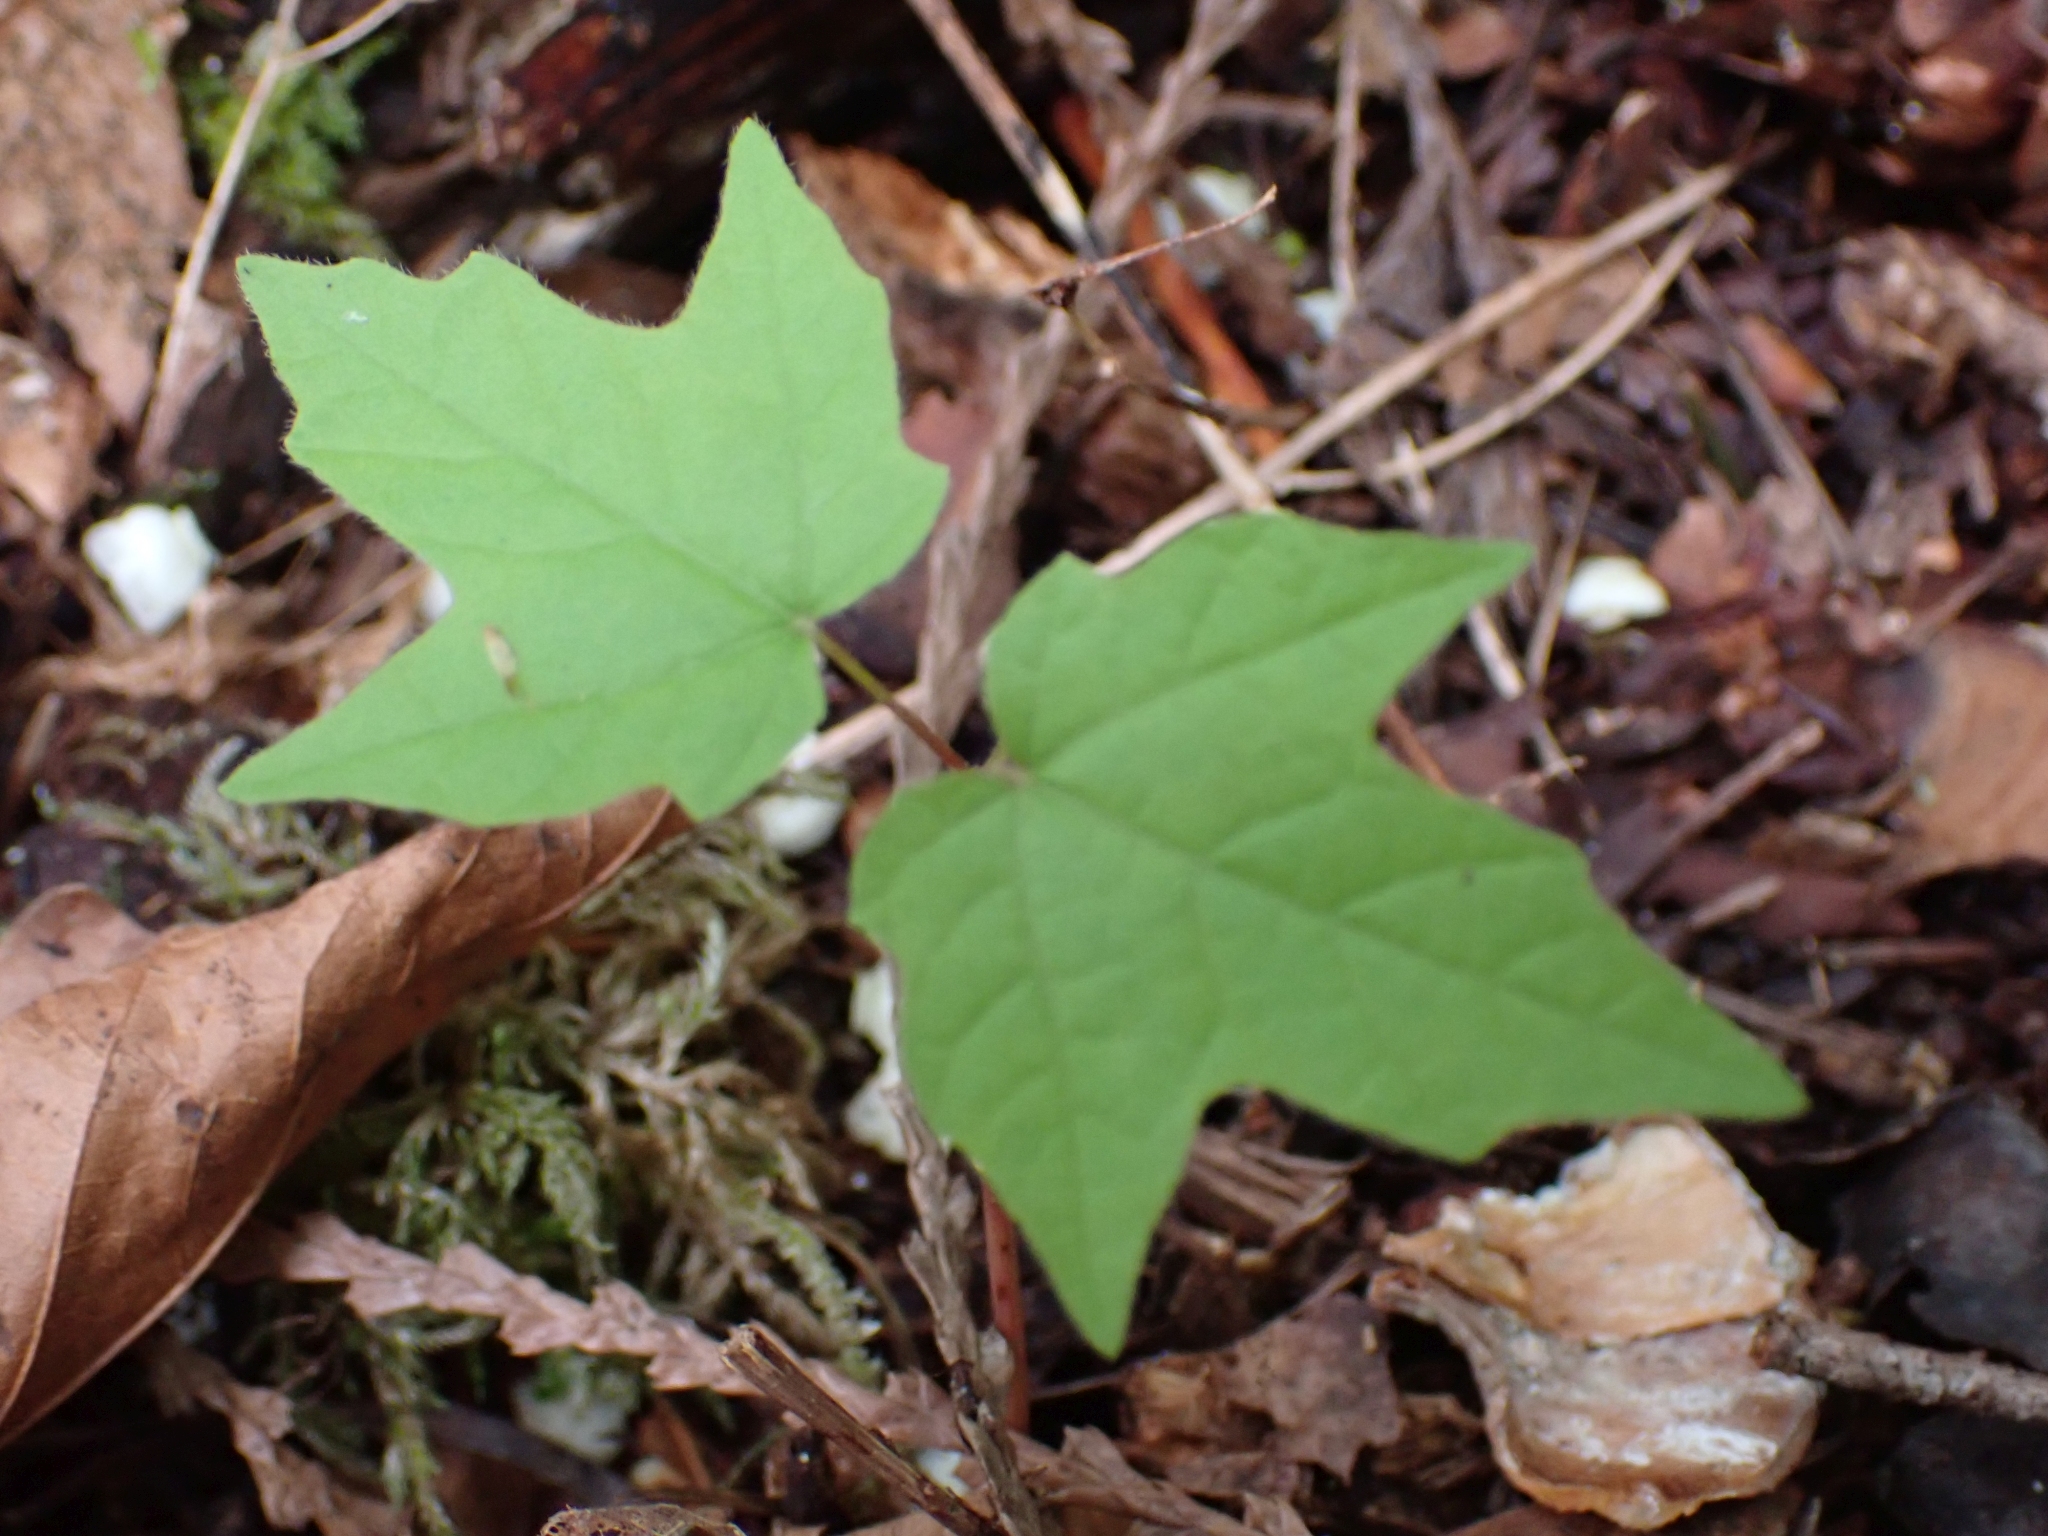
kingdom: Plantae
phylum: Tracheophyta
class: Magnoliopsida
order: Sapindales
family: Sapindaceae
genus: Acer
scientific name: Acer macrophyllum
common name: Oregon maple
